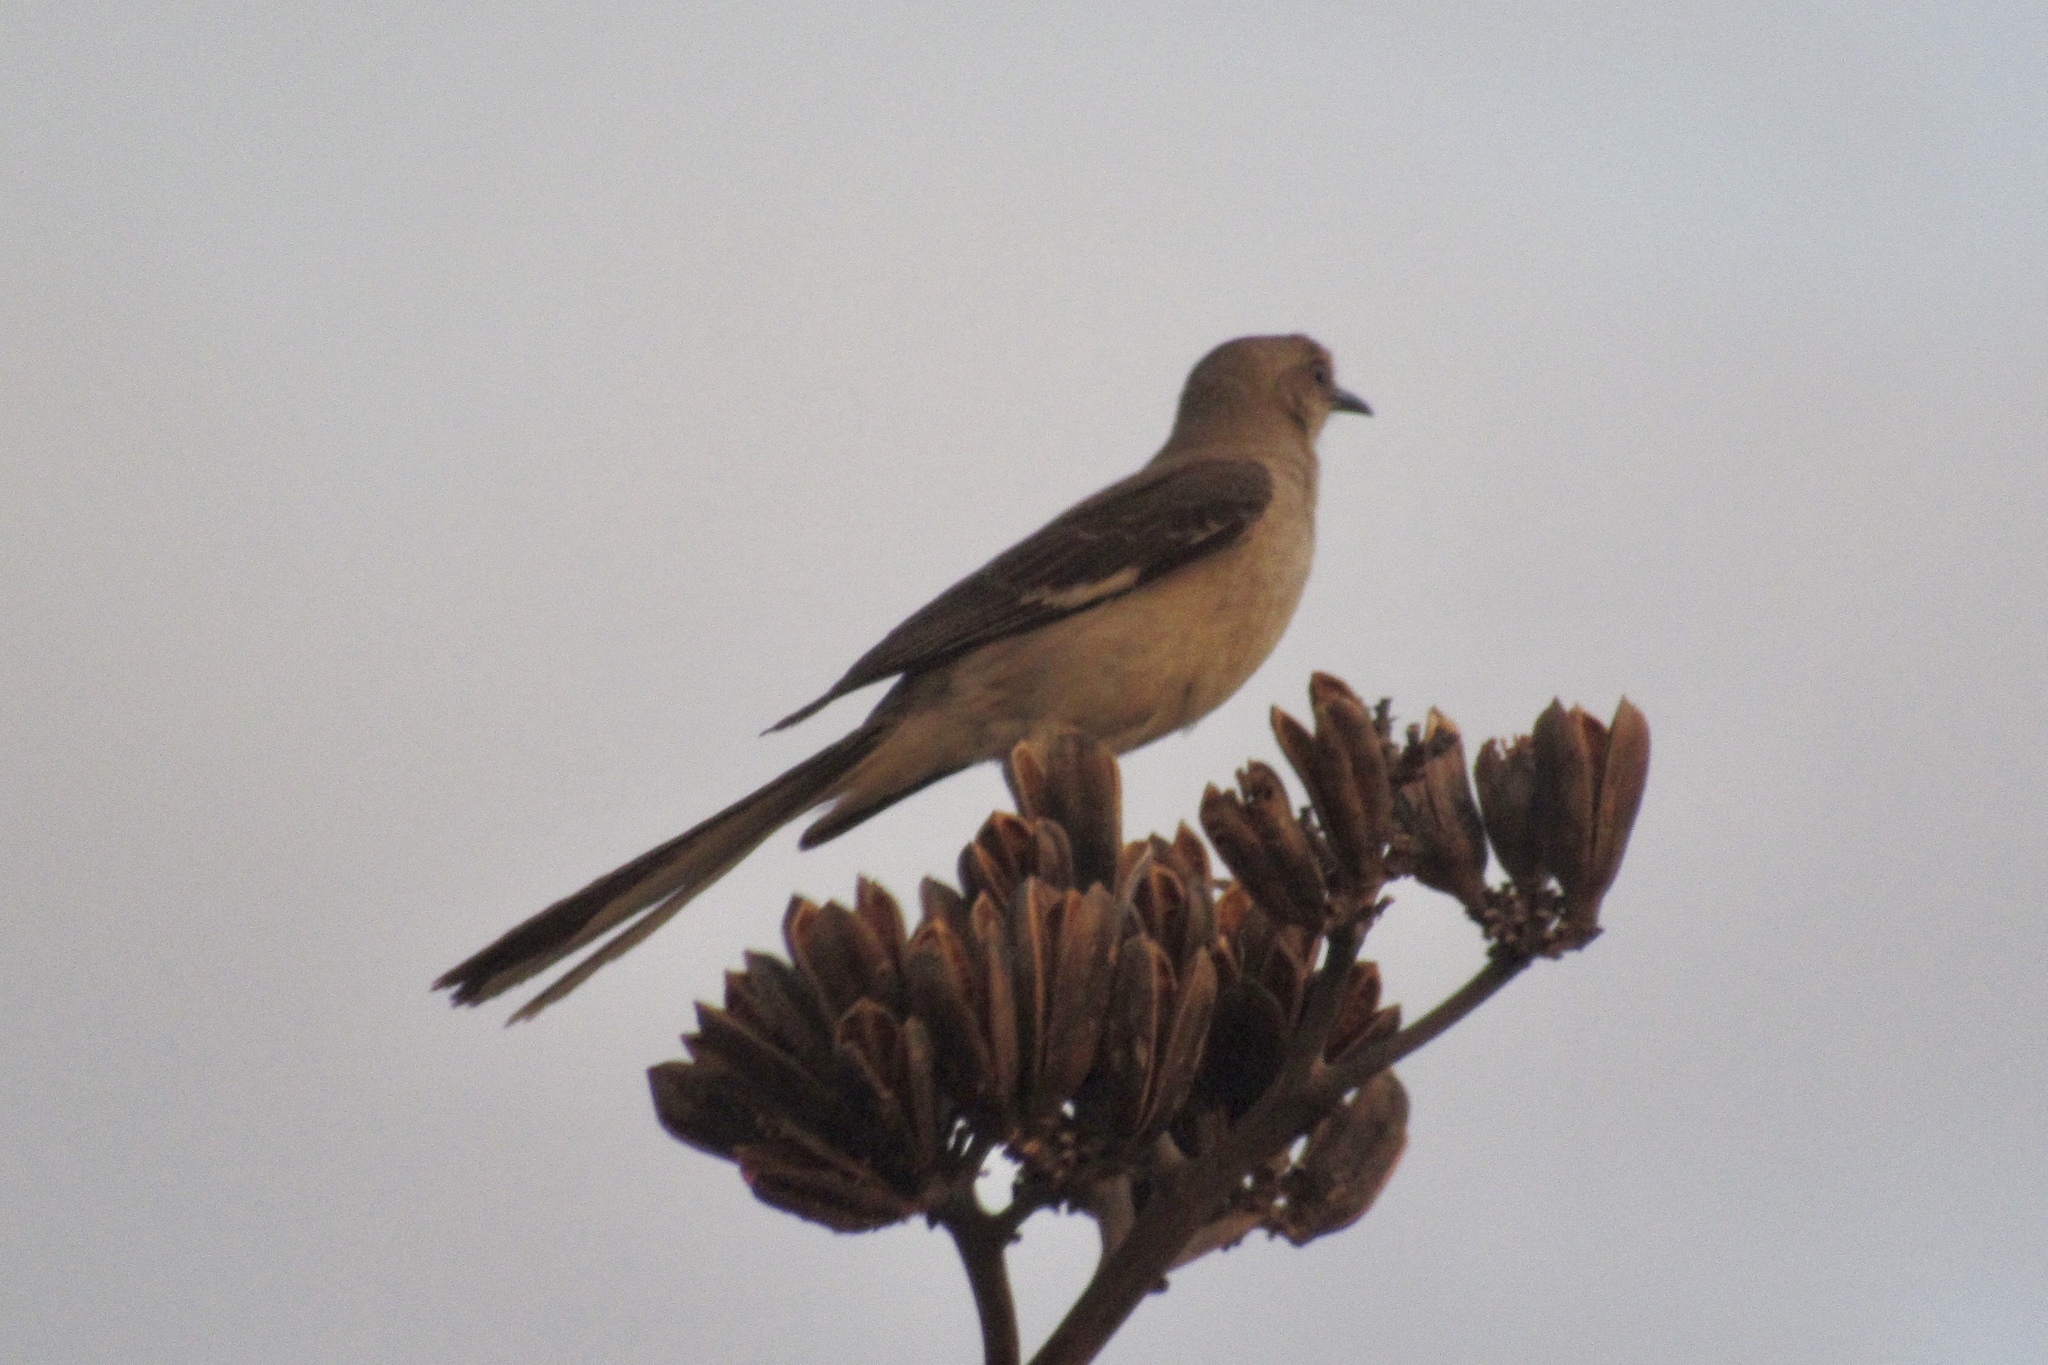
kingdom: Animalia
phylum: Chordata
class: Aves
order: Passeriformes
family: Mimidae
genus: Mimus
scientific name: Mimus polyglottos
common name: Northern mockingbird
